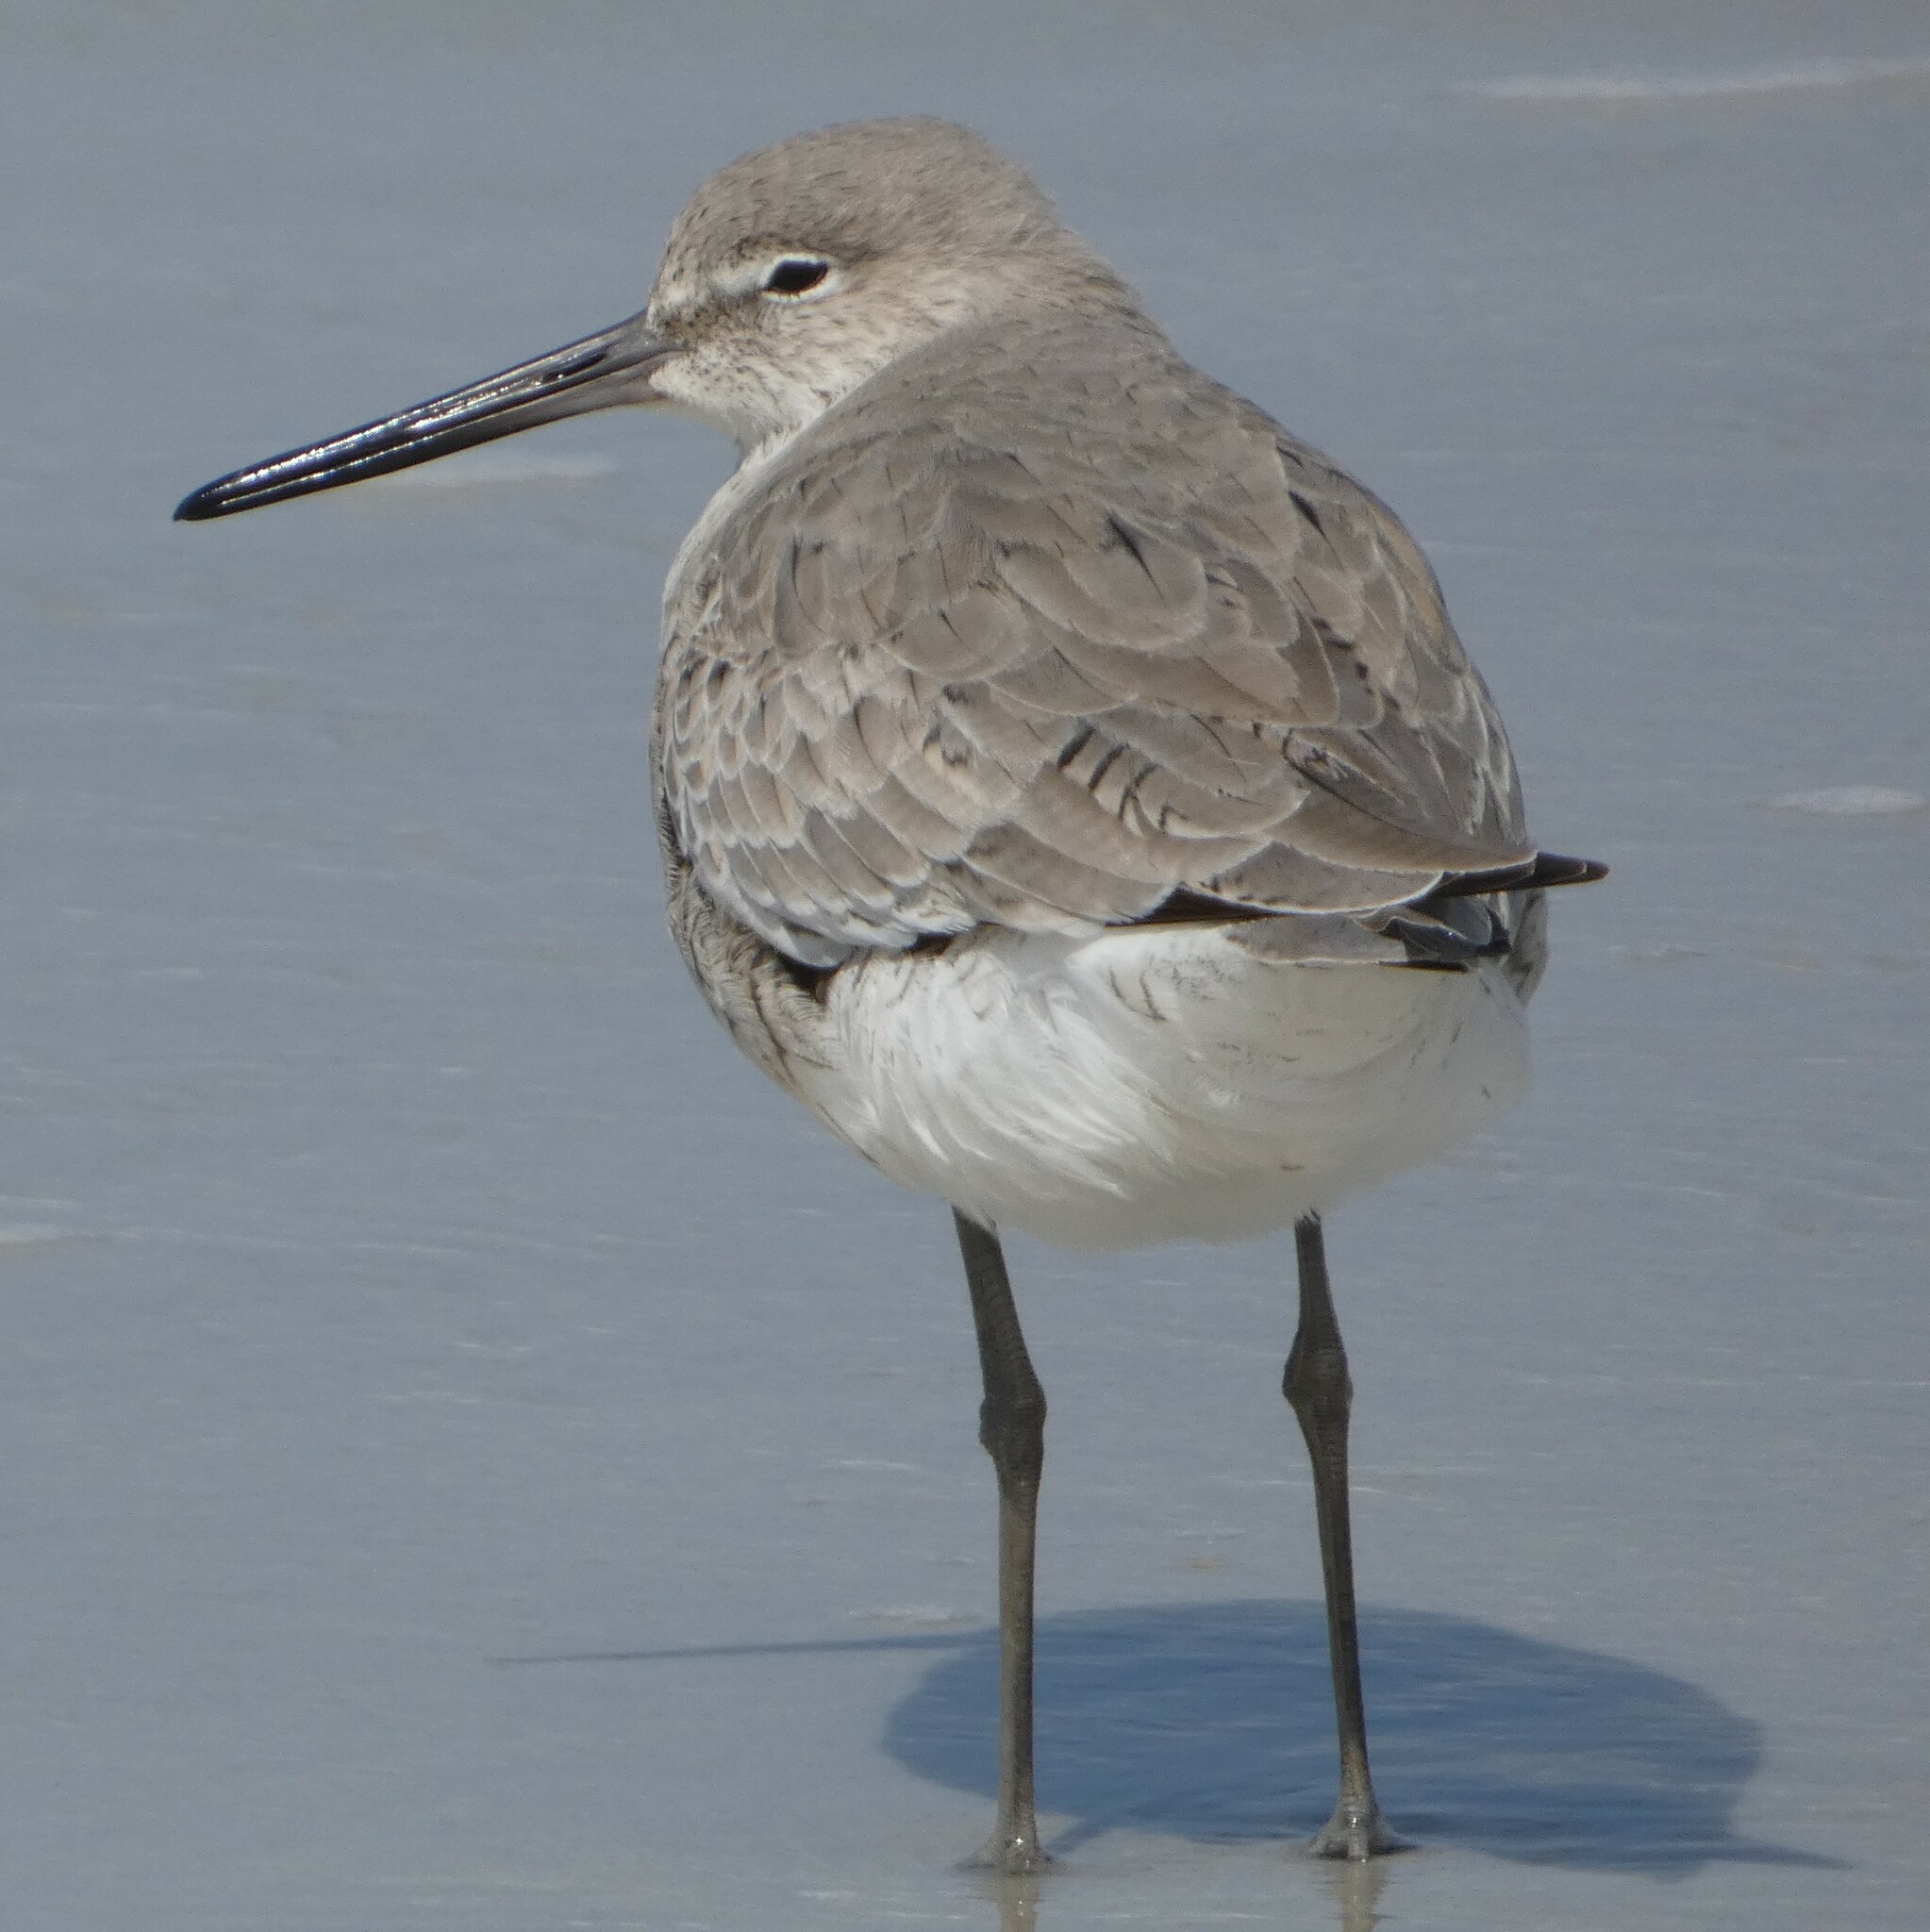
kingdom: Animalia
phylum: Chordata
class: Aves
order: Charadriiformes
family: Scolopacidae
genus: Tringa
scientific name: Tringa semipalmata
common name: Willet
